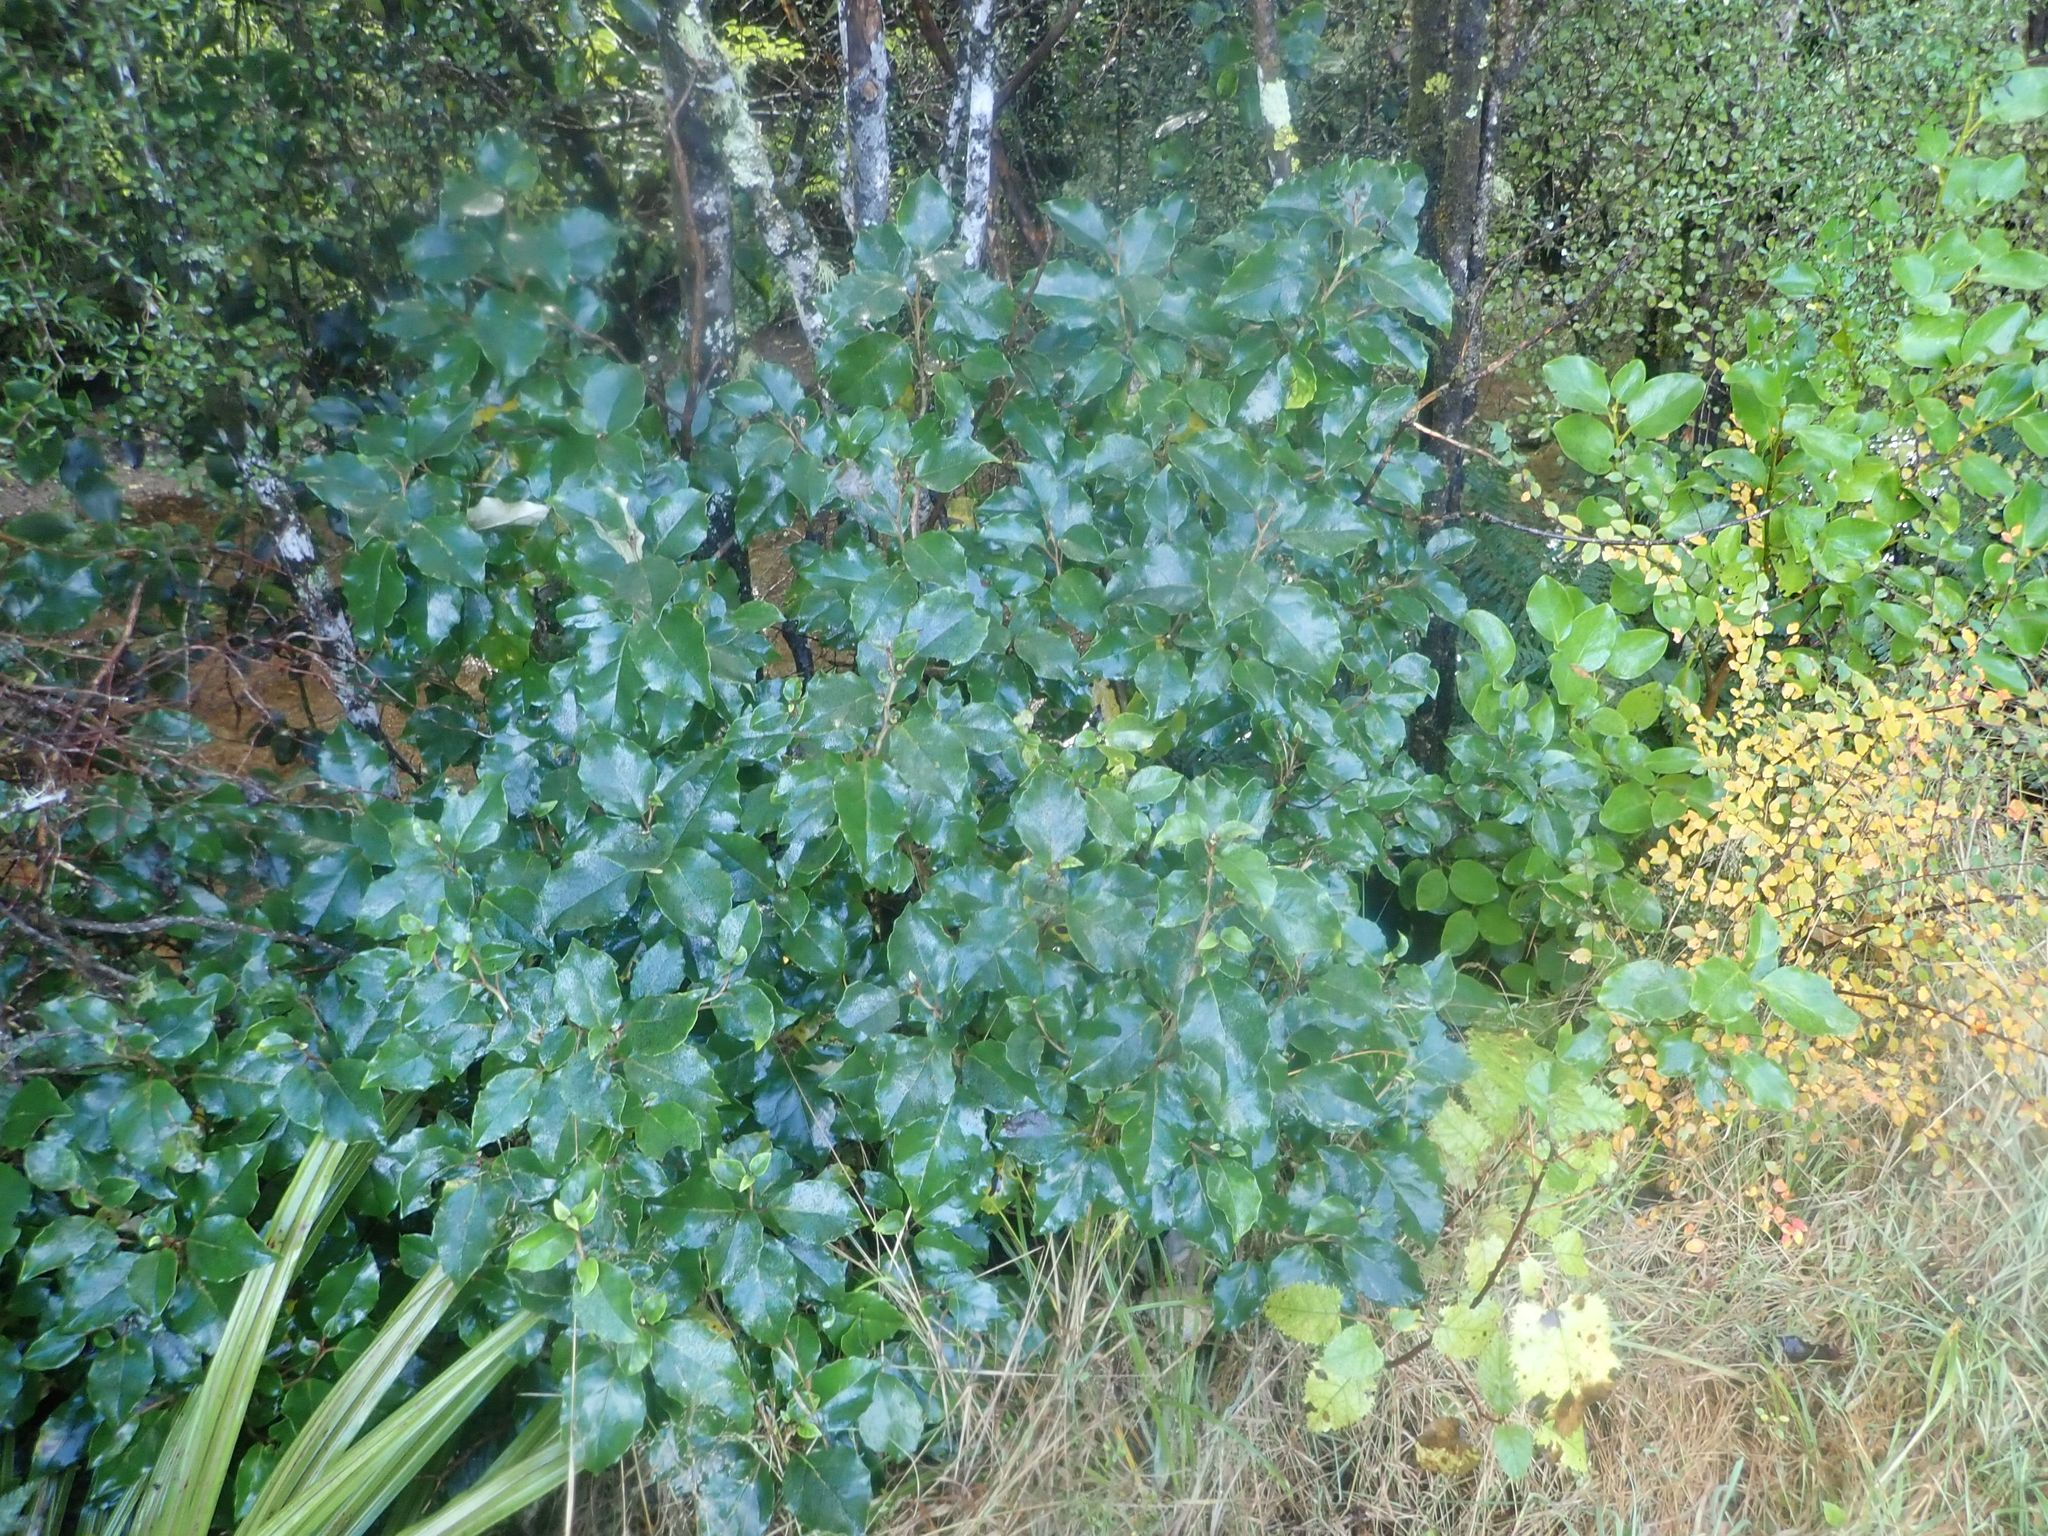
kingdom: Plantae
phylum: Tracheophyta
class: Magnoliopsida
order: Asterales
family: Asteraceae
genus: Olearia
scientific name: Olearia arborescens
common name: Glossy tree daisy
